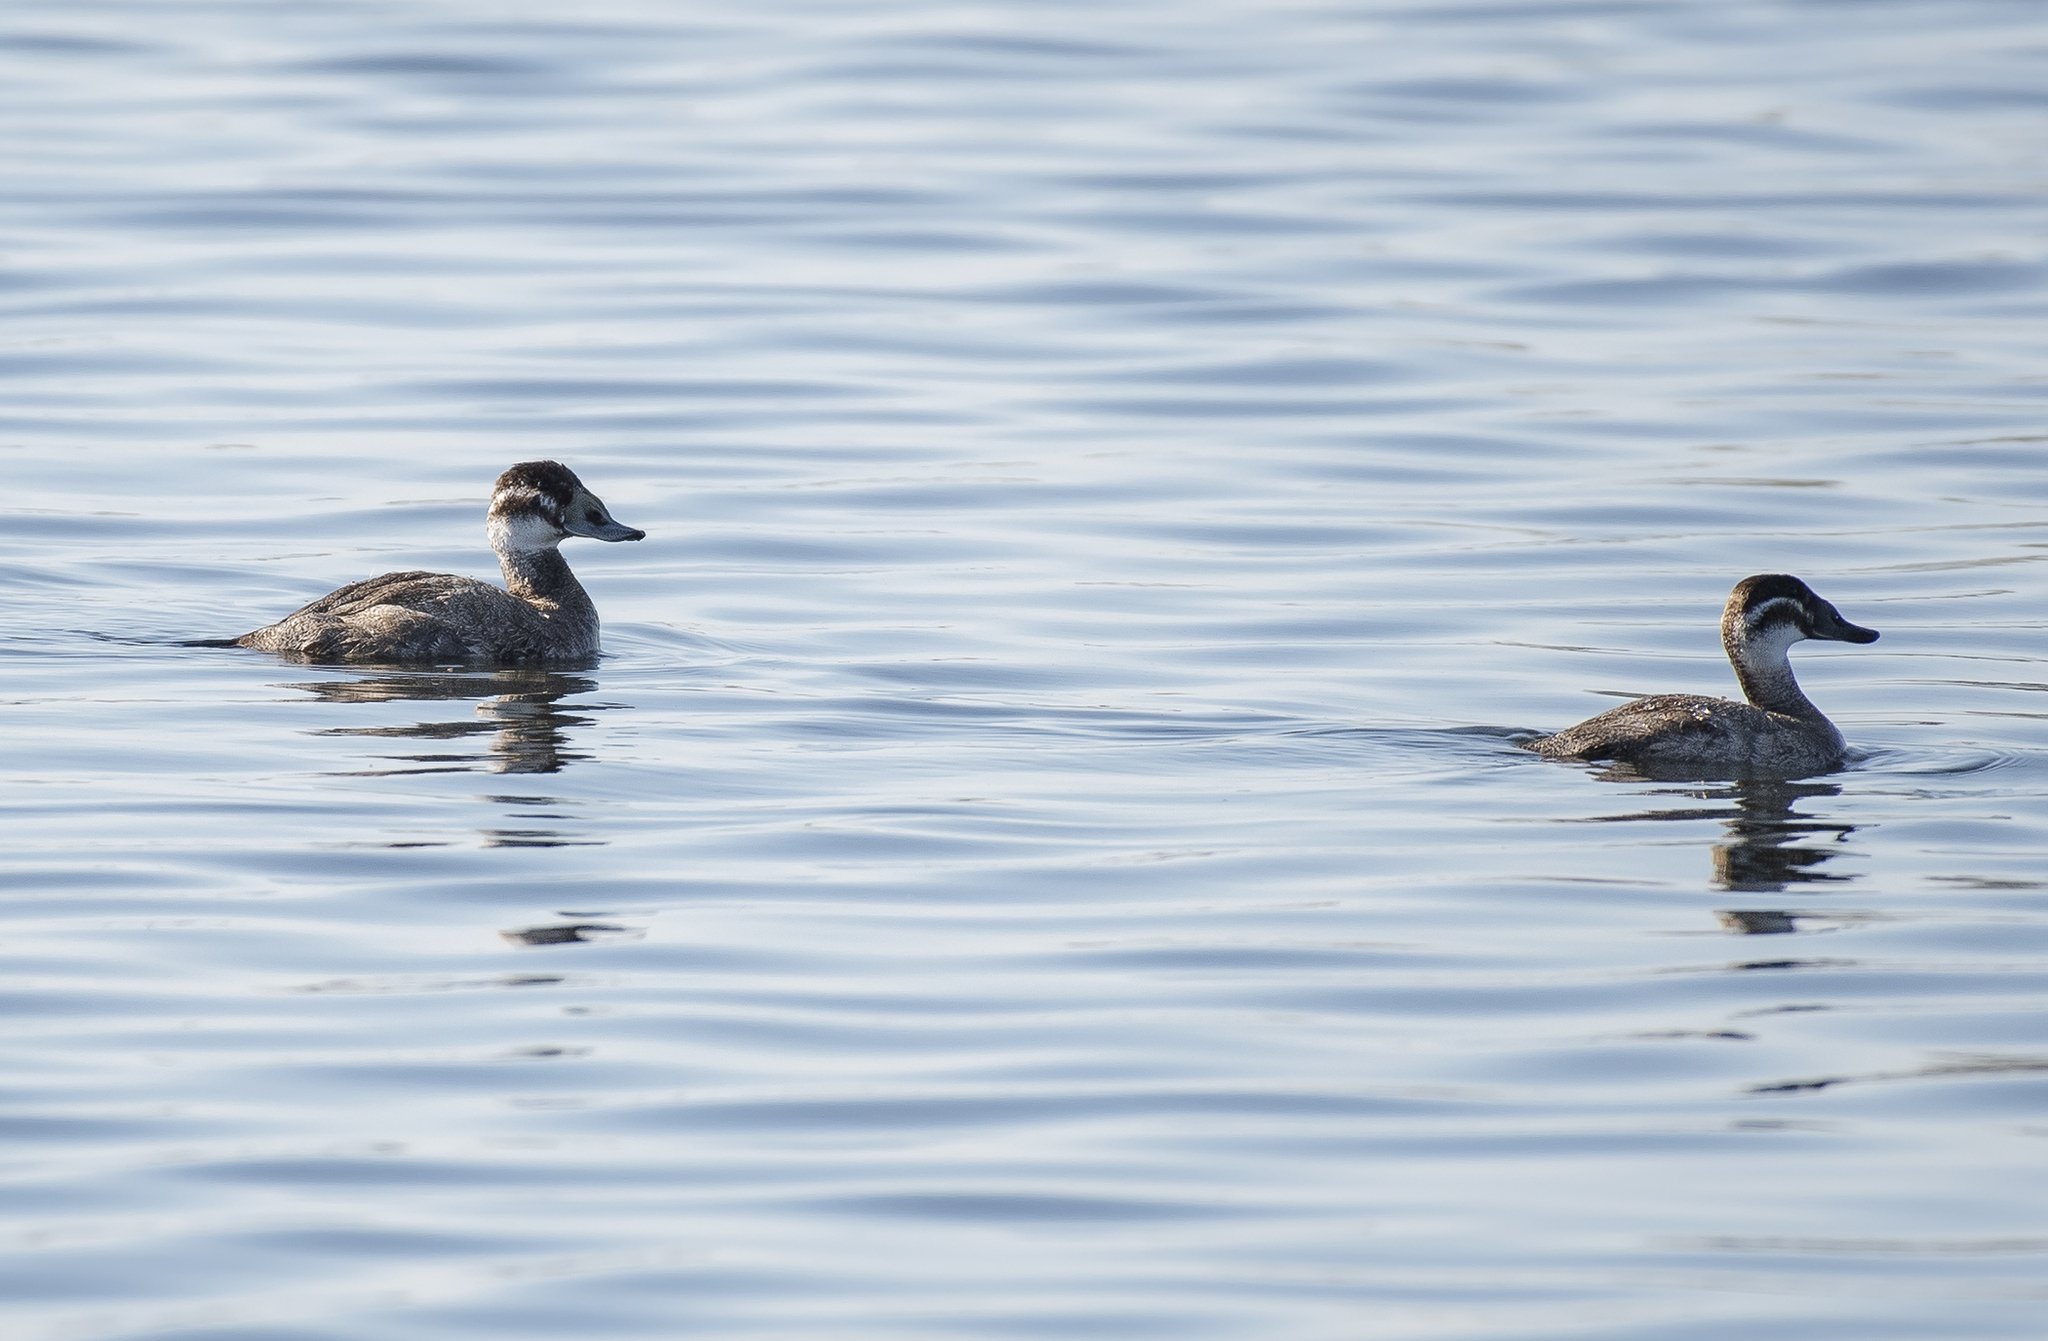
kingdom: Animalia
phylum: Chordata
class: Aves
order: Anseriformes
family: Anatidae
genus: Oxyura
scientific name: Oxyura leucocephala
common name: White-headed duck
